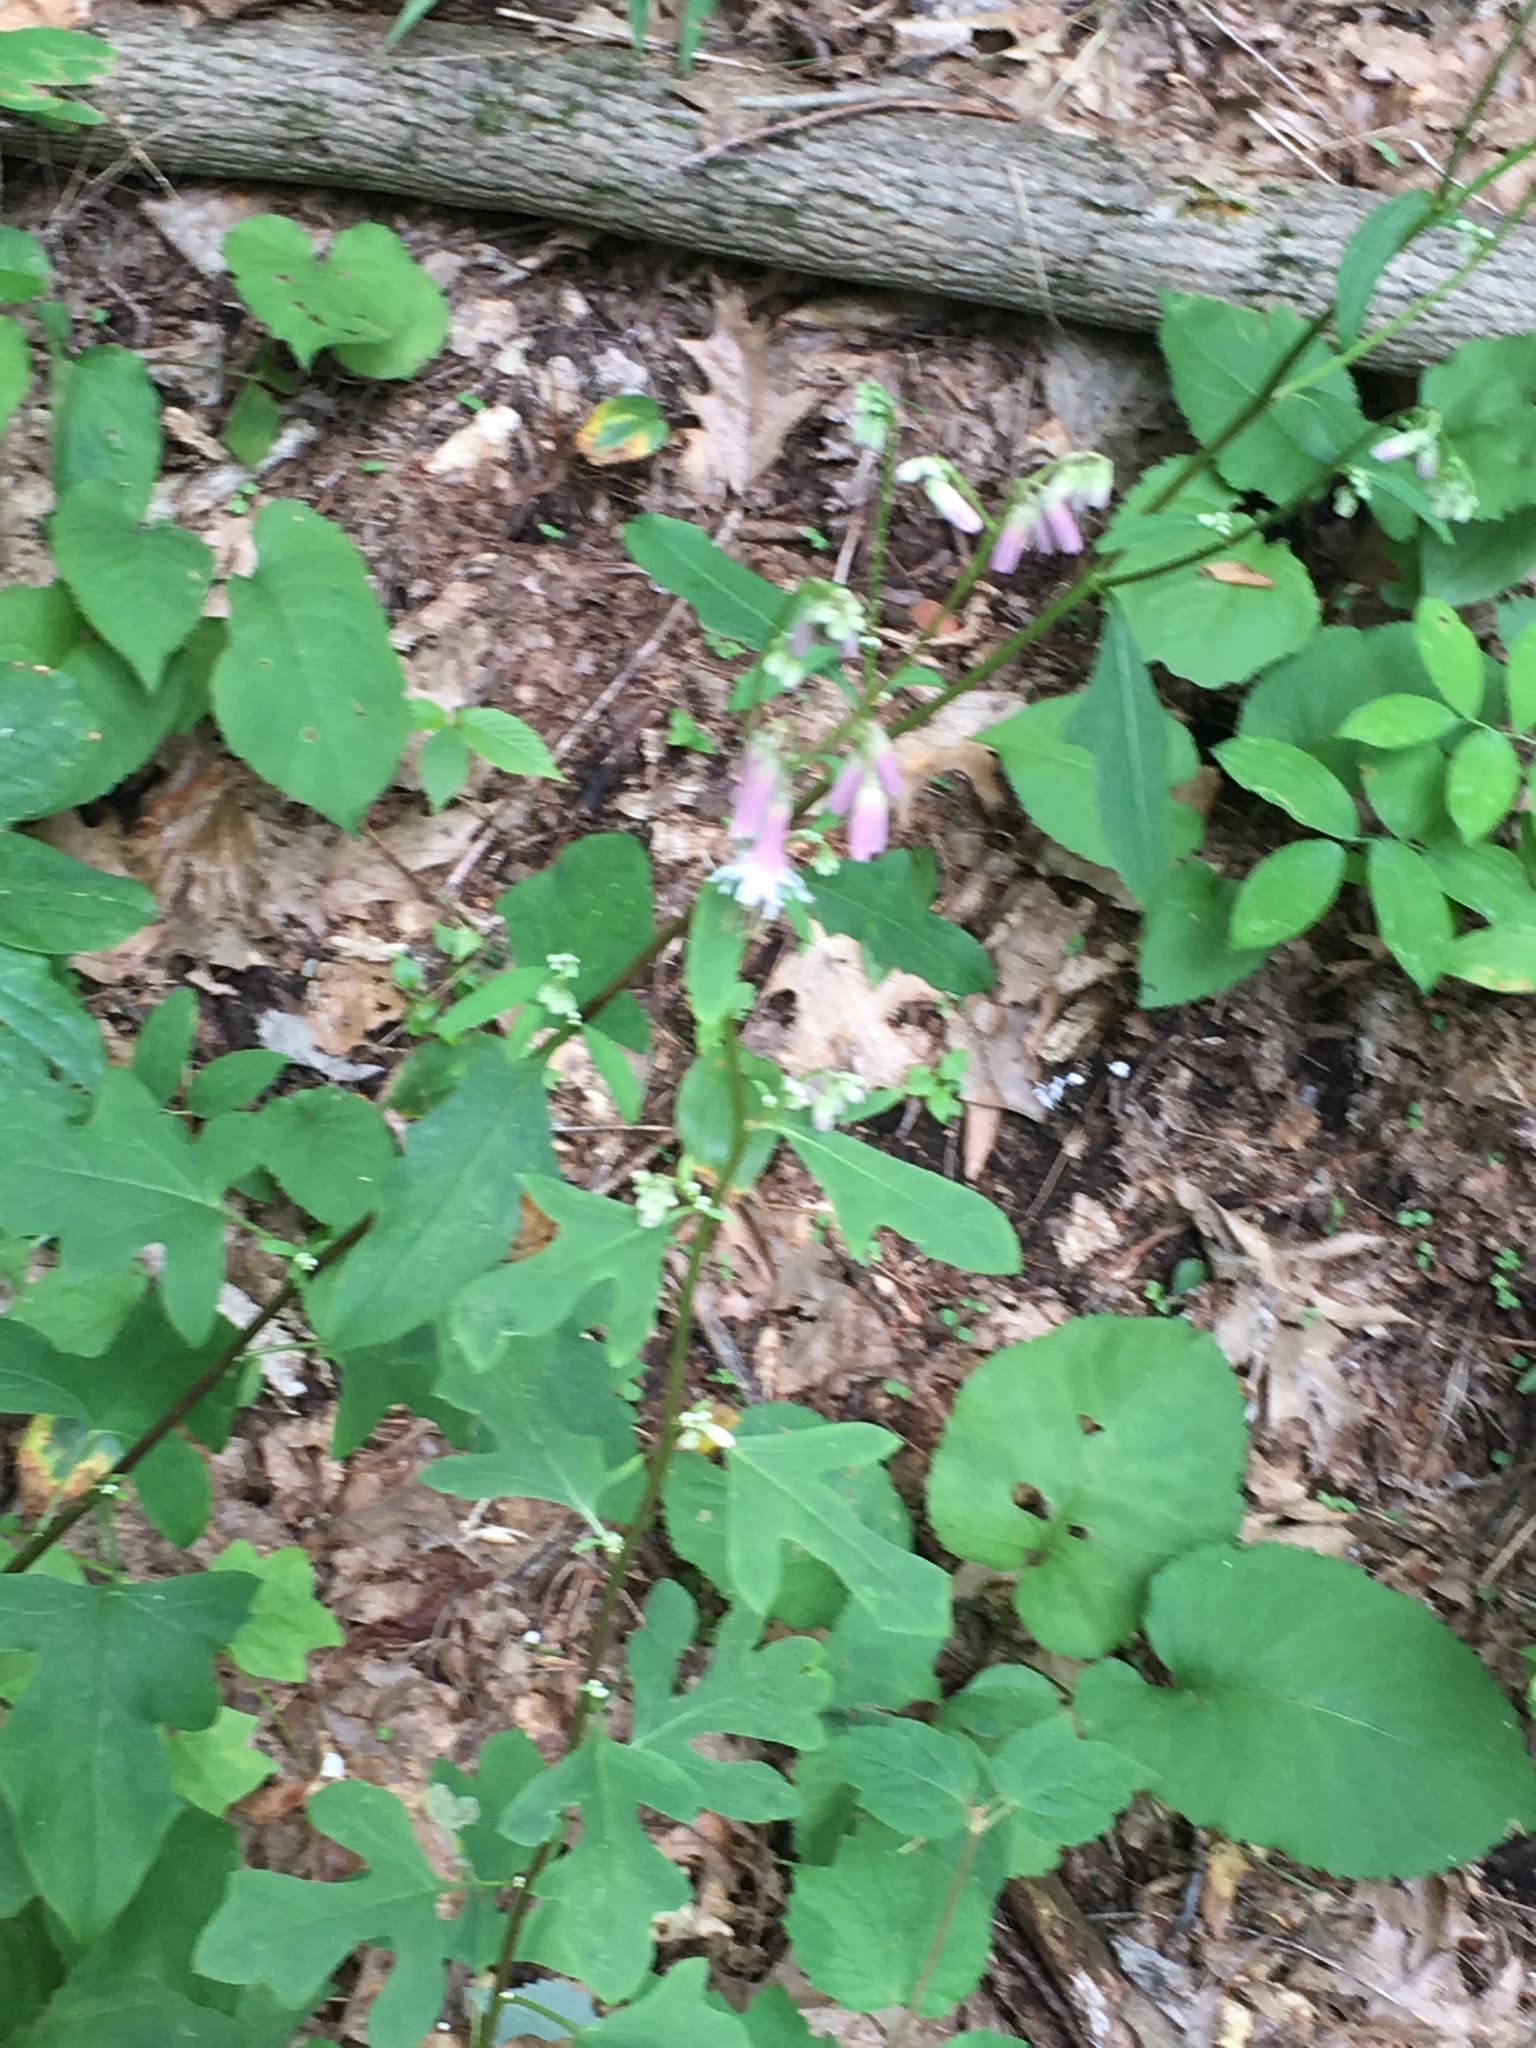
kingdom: Plantae
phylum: Tracheophyta
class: Magnoliopsida
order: Asterales
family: Asteraceae
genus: Nabalus
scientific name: Nabalus albus
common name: White rattlesnakeroot
